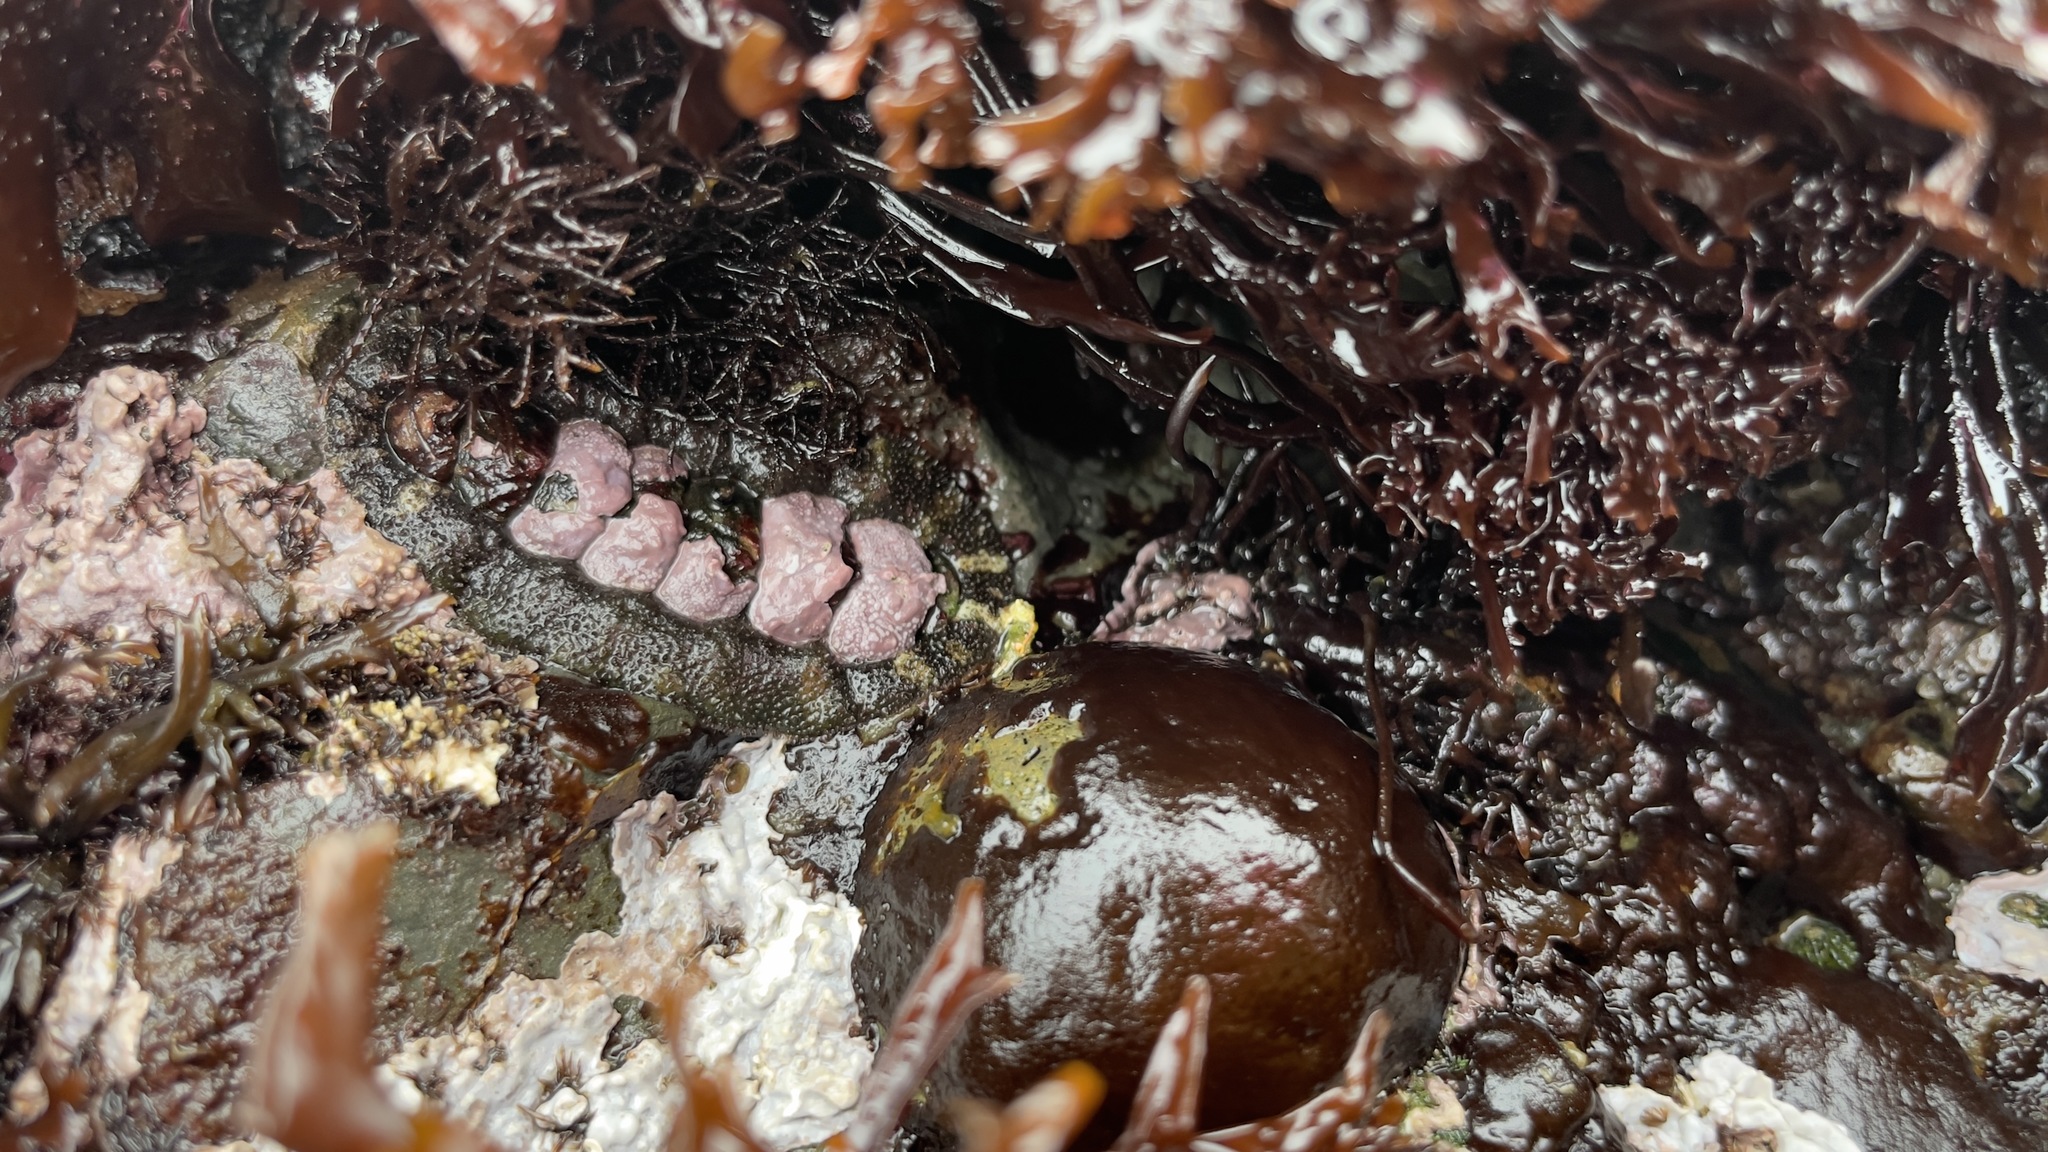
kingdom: Animalia
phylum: Mollusca
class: Polyplacophora
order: Chitonida
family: Tonicellidae
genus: Nuttallina
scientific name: Nuttallina californica
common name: California nuttall chiton
